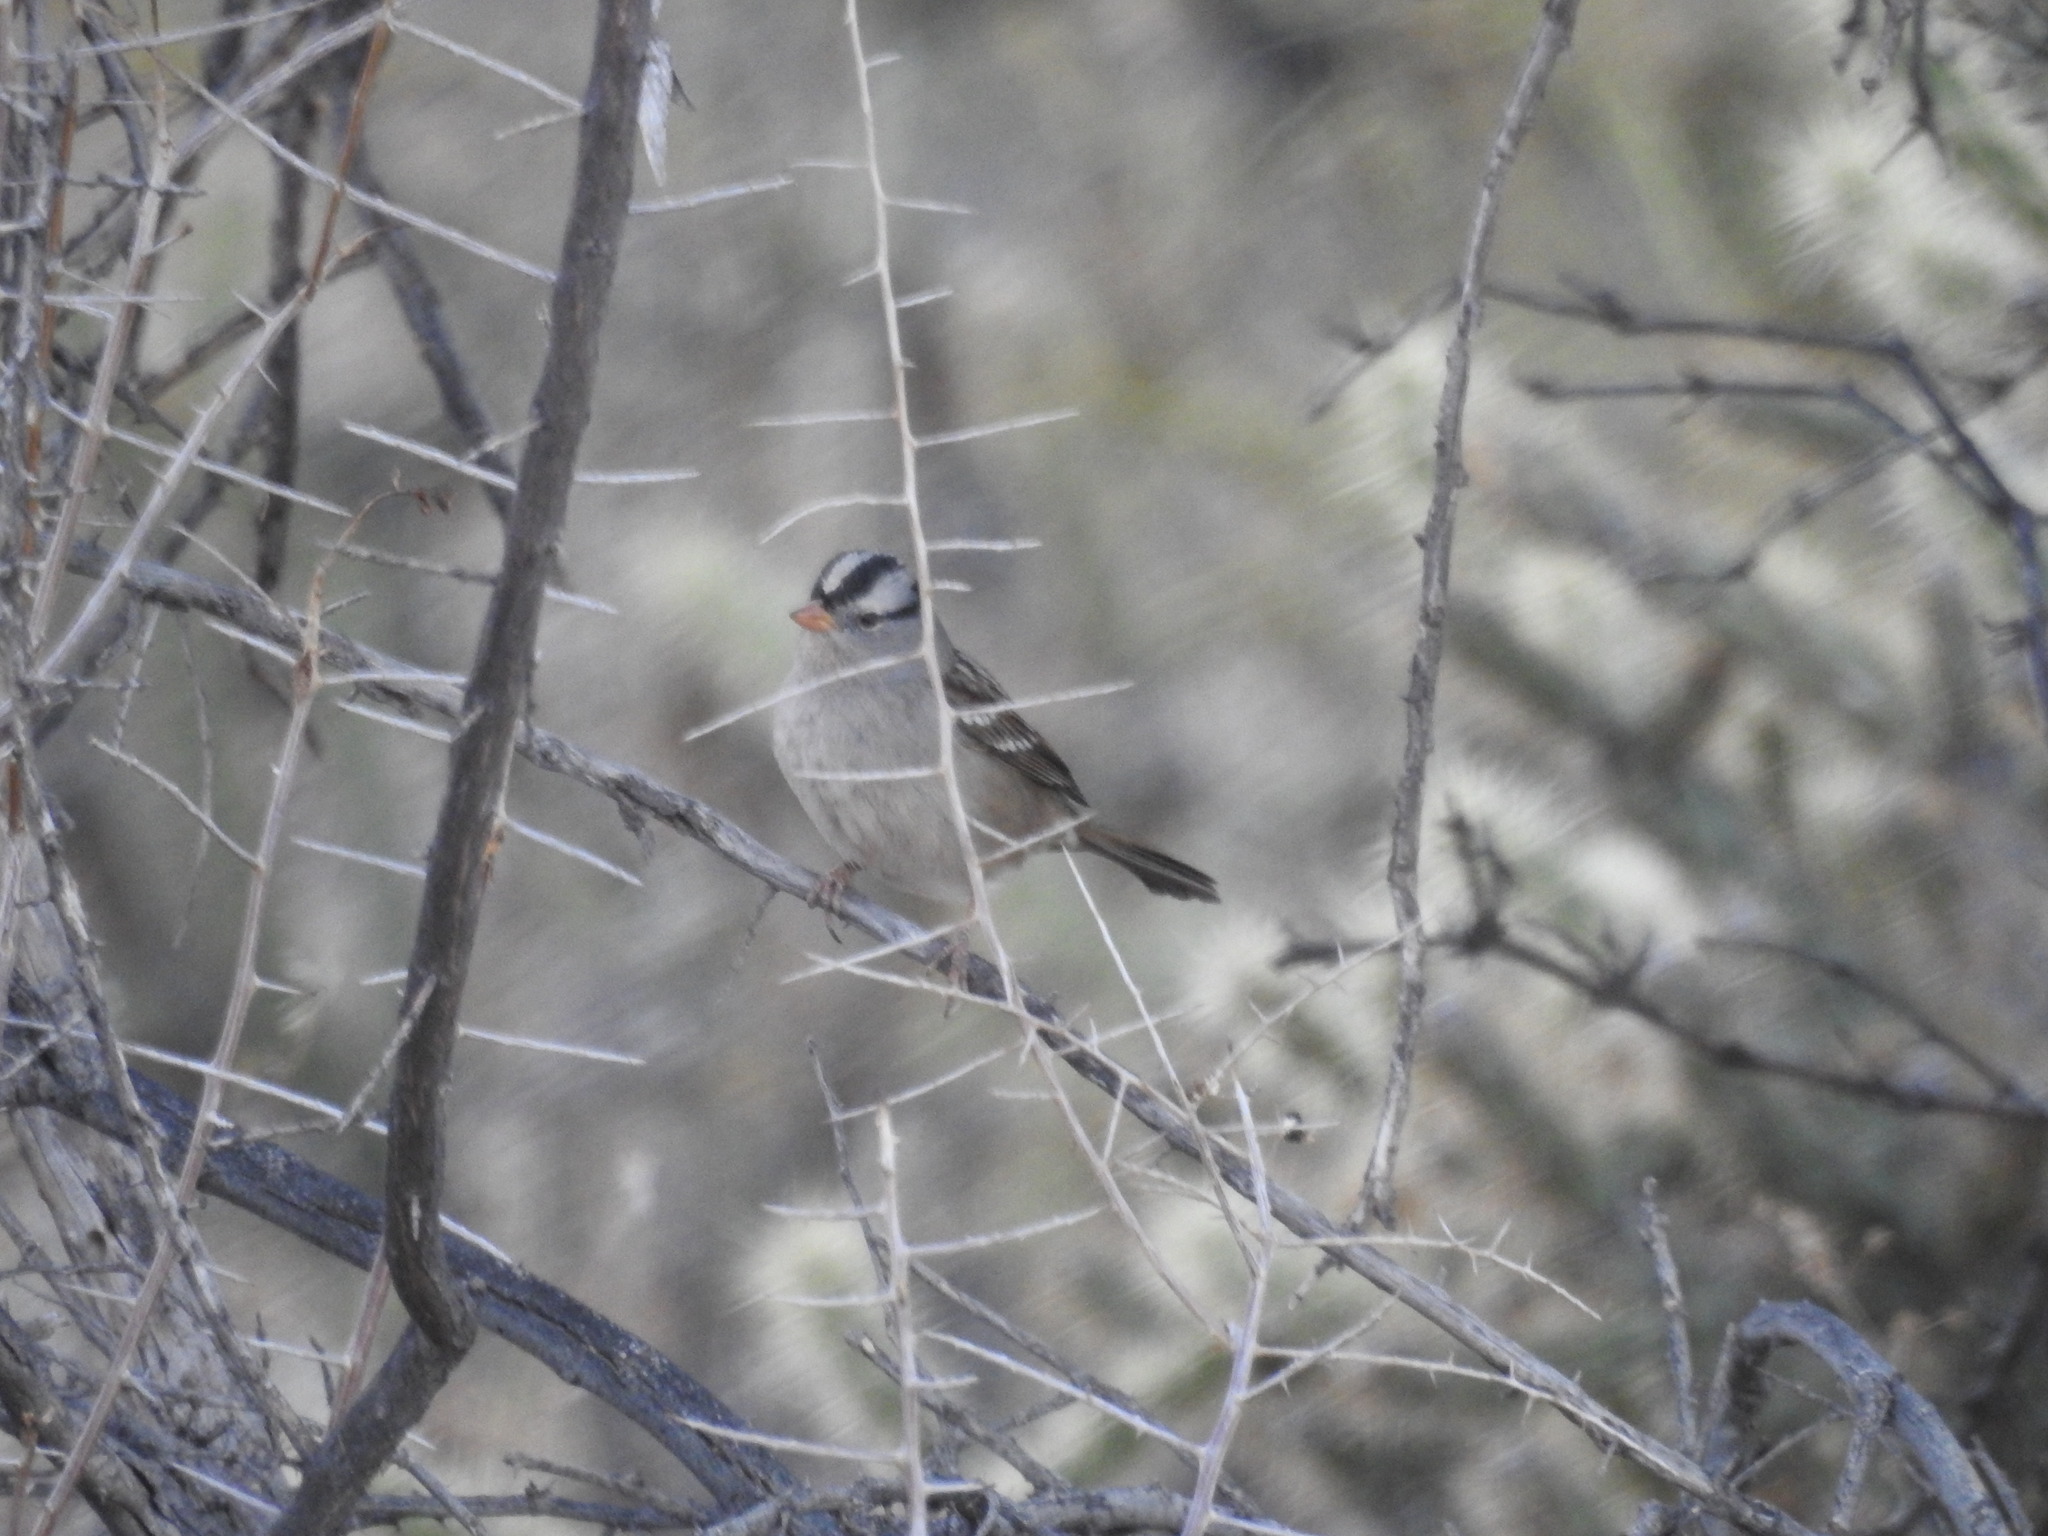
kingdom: Animalia
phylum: Chordata
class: Aves
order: Passeriformes
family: Passerellidae
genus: Zonotrichia
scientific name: Zonotrichia leucophrys
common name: White-crowned sparrow
